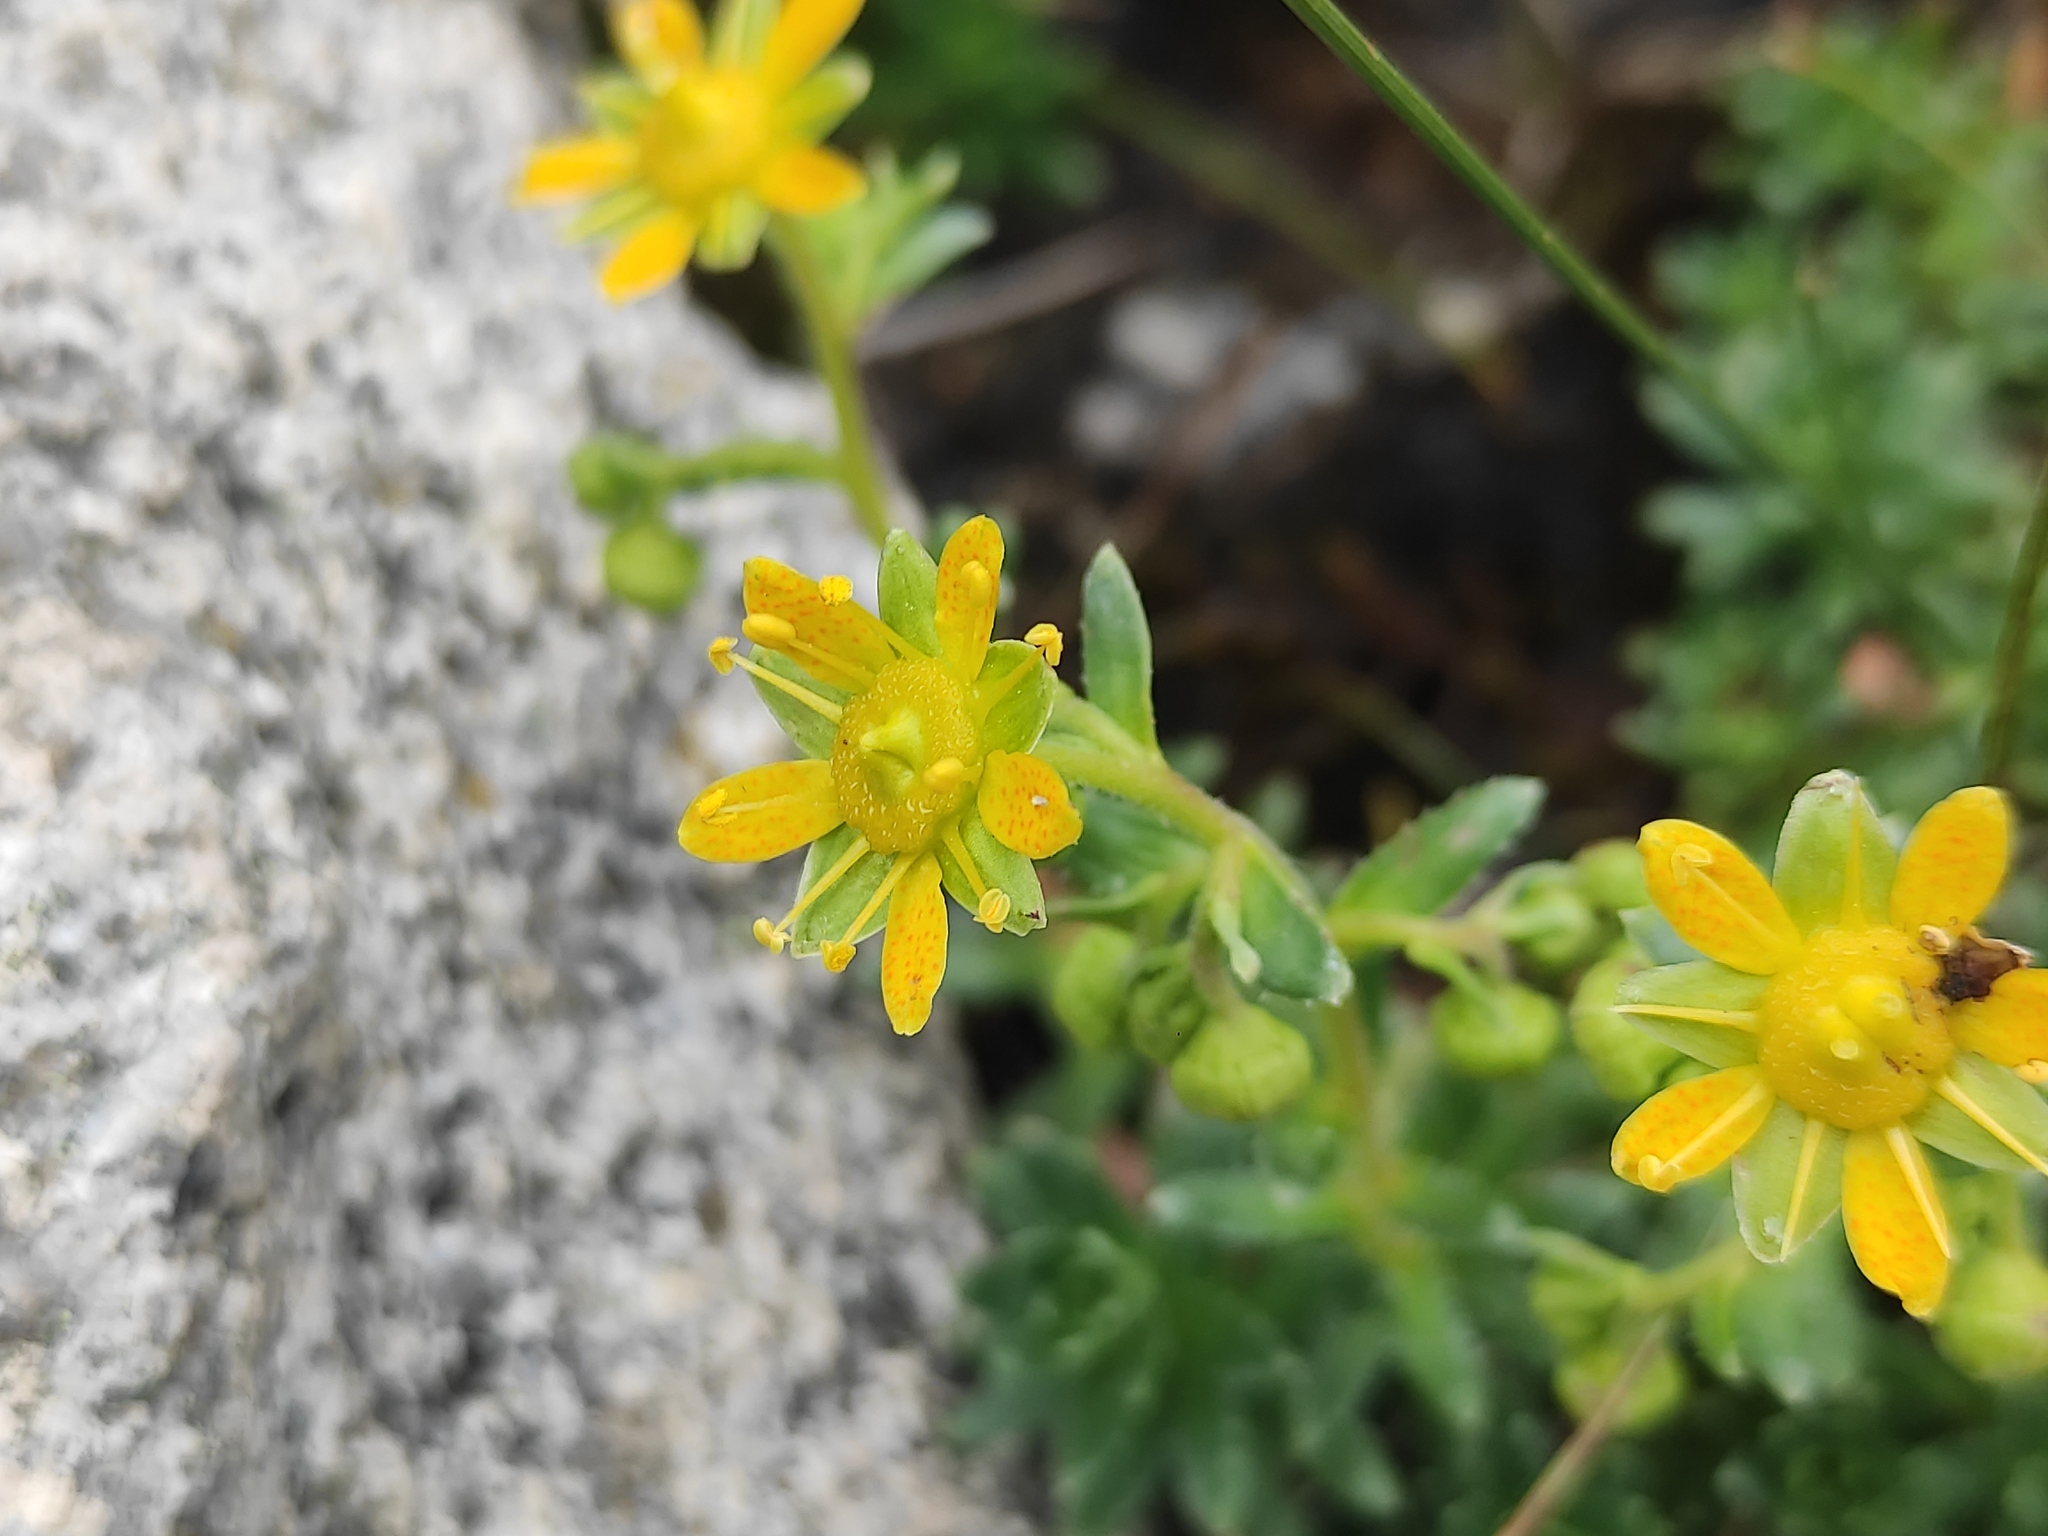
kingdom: Plantae
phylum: Tracheophyta
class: Magnoliopsida
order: Saxifragales
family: Saxifragaceae
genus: Saxifraga
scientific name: Saxifraga aizoides
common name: Yellow mountain saxifrage
